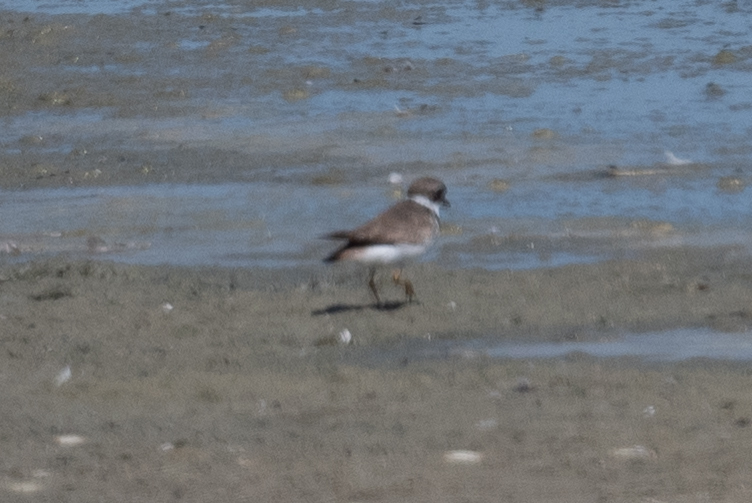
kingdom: Animalia
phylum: Chordata
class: Aves
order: Charadriiformes
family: Charadriidae
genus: Charadrius
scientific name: Charadrius semipalmatus
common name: Semipalmated plover
